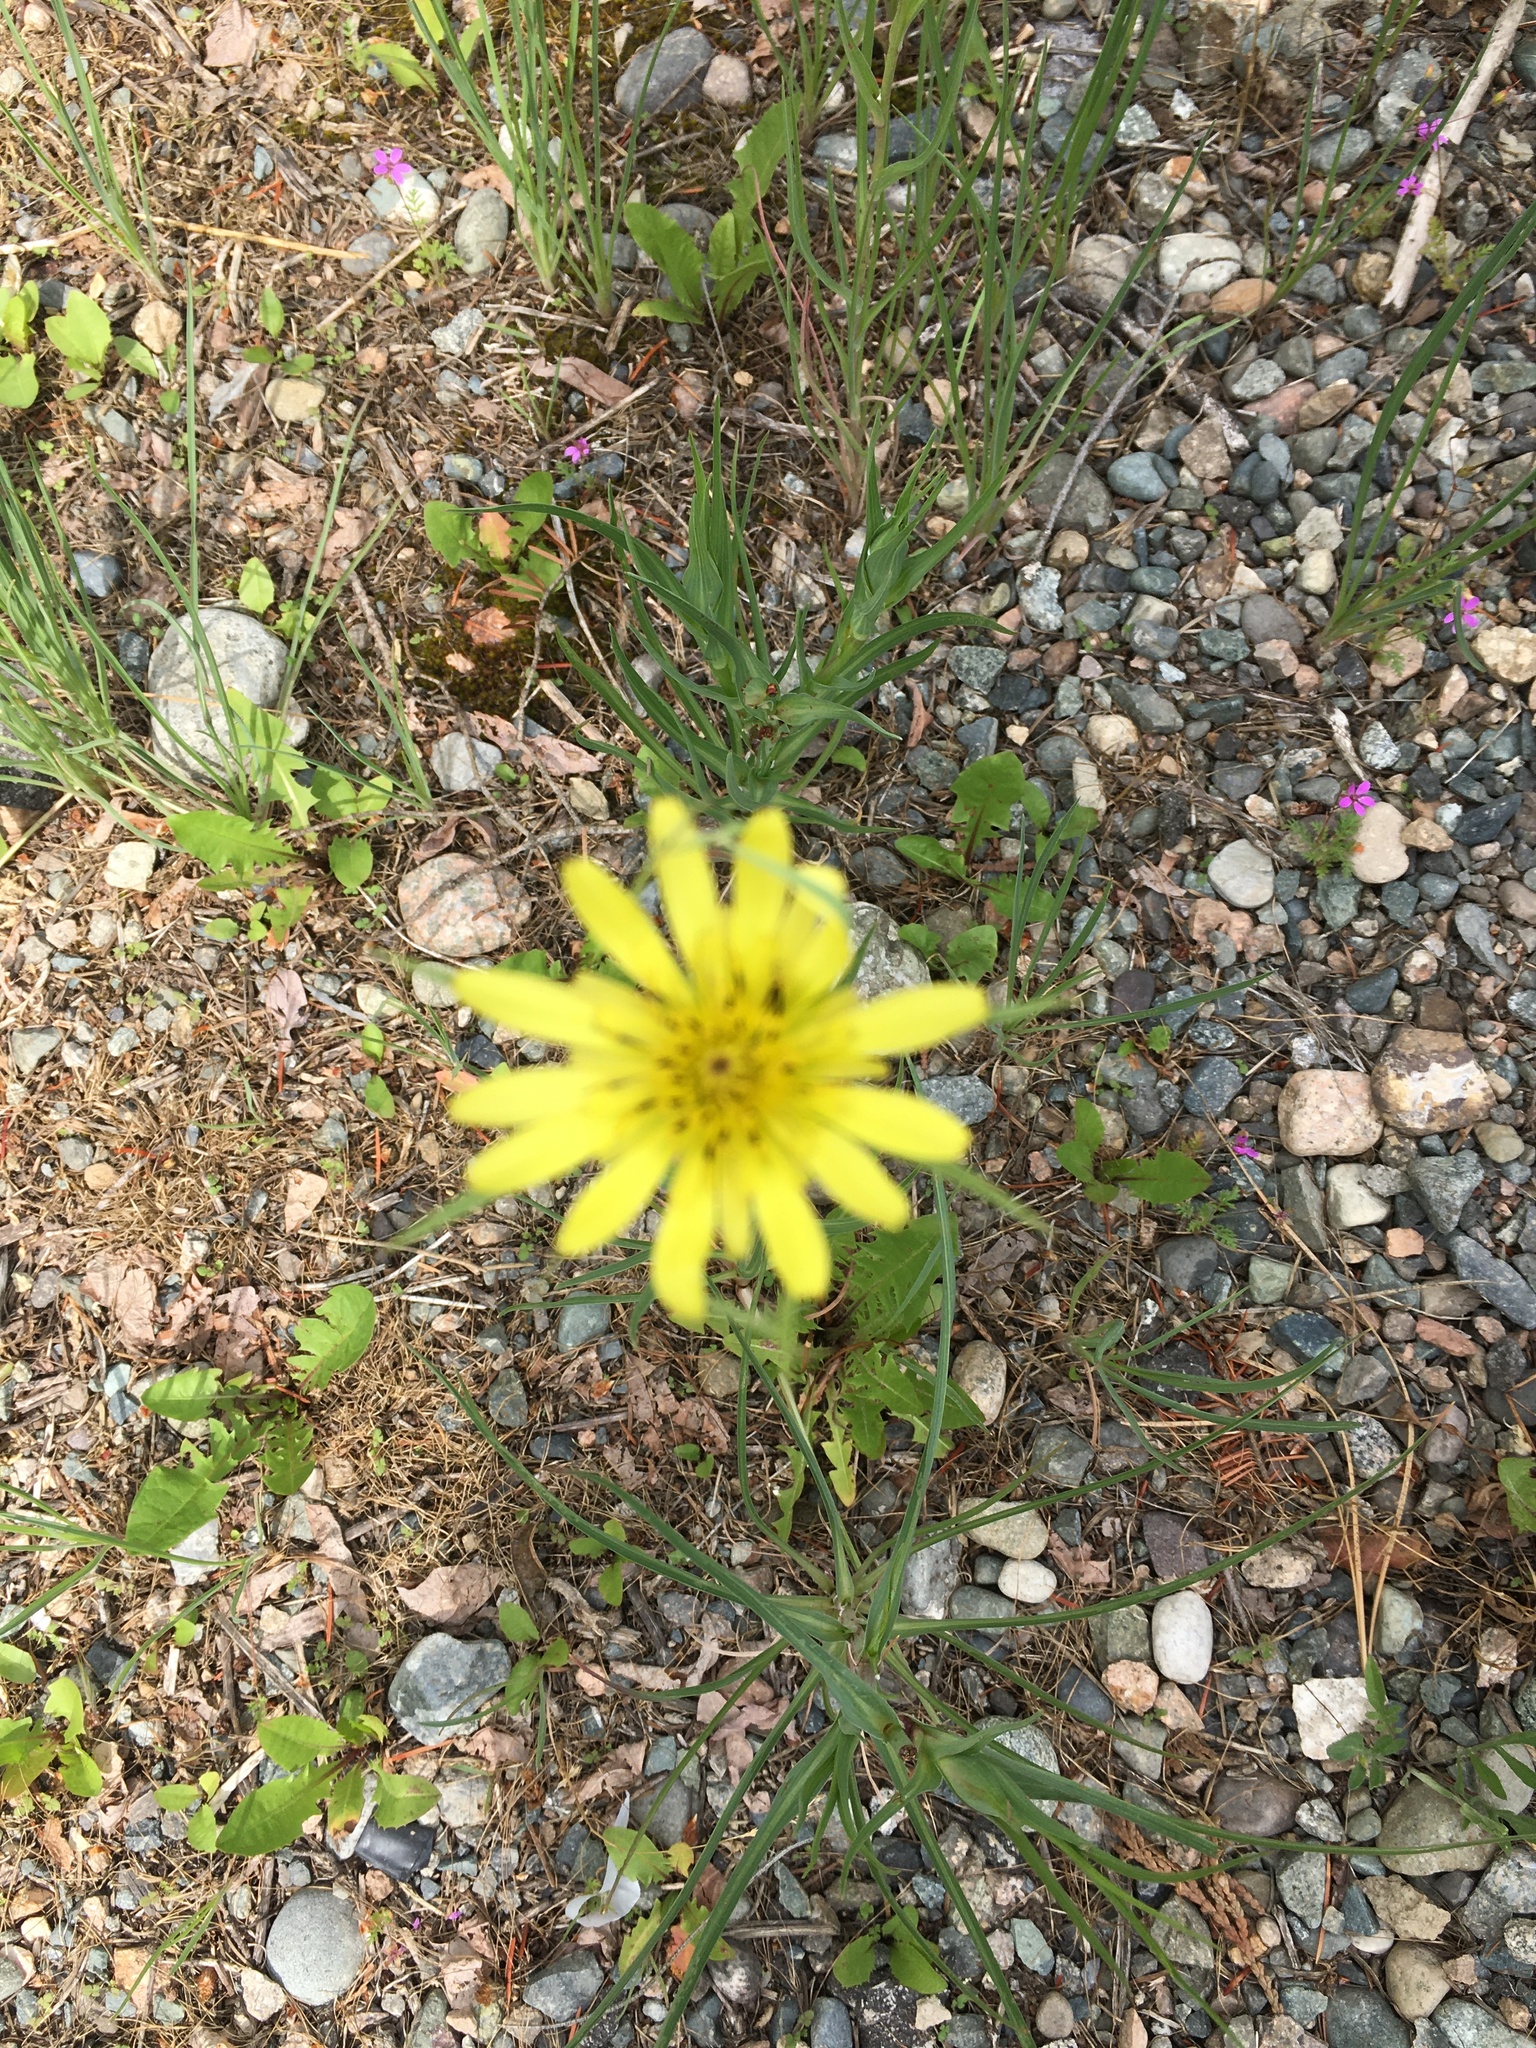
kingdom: Plantae
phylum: Tracheophyta
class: Magnoliopsida
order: Asterales
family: Asteraceae
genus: Tragopogon
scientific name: Tragopogon dubius
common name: Yellow salsify
